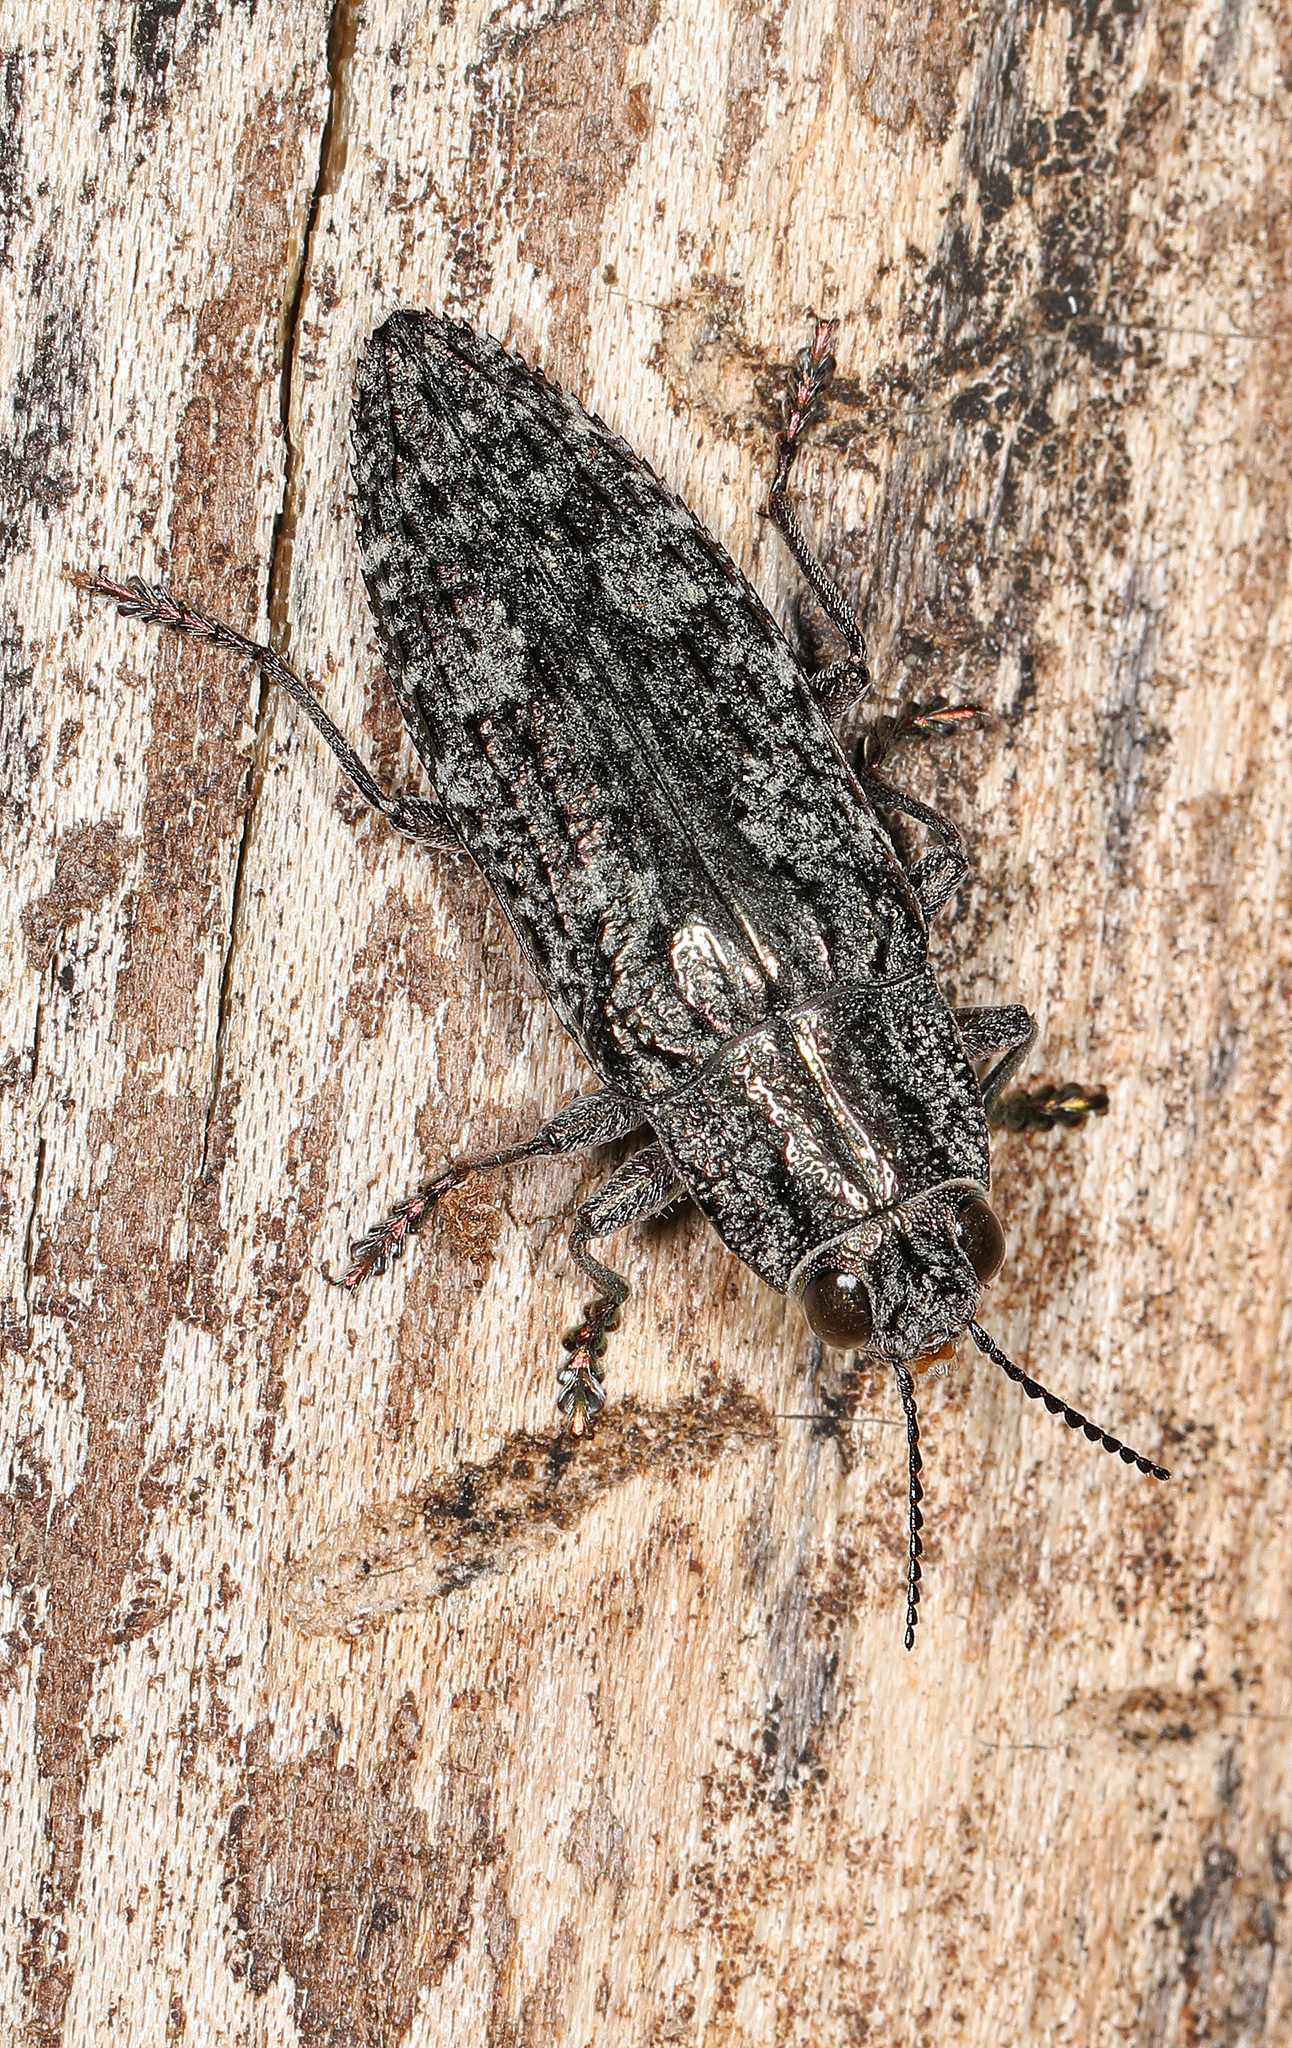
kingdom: Animalia
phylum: Arthropoda
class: Insecta
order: Coleoptera
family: Buprestidae
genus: Texania
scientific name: Texania campestris
